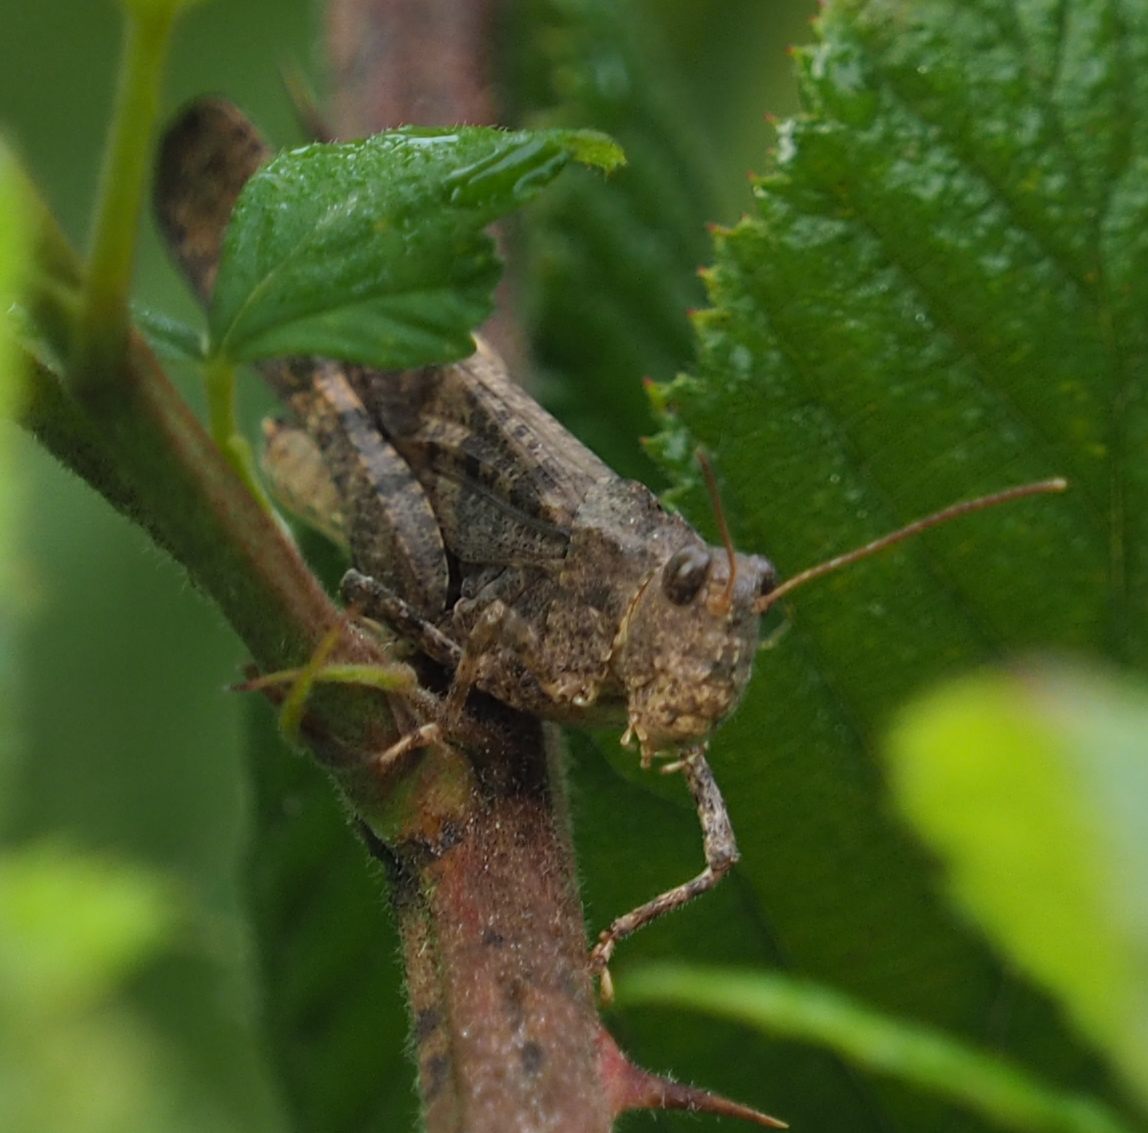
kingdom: Animalia
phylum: Arthropoda
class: Insecta
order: Orthoptera
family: Acrididae
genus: Dissosteira
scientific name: Dissosteira carolina
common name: Carolina grasshopper
